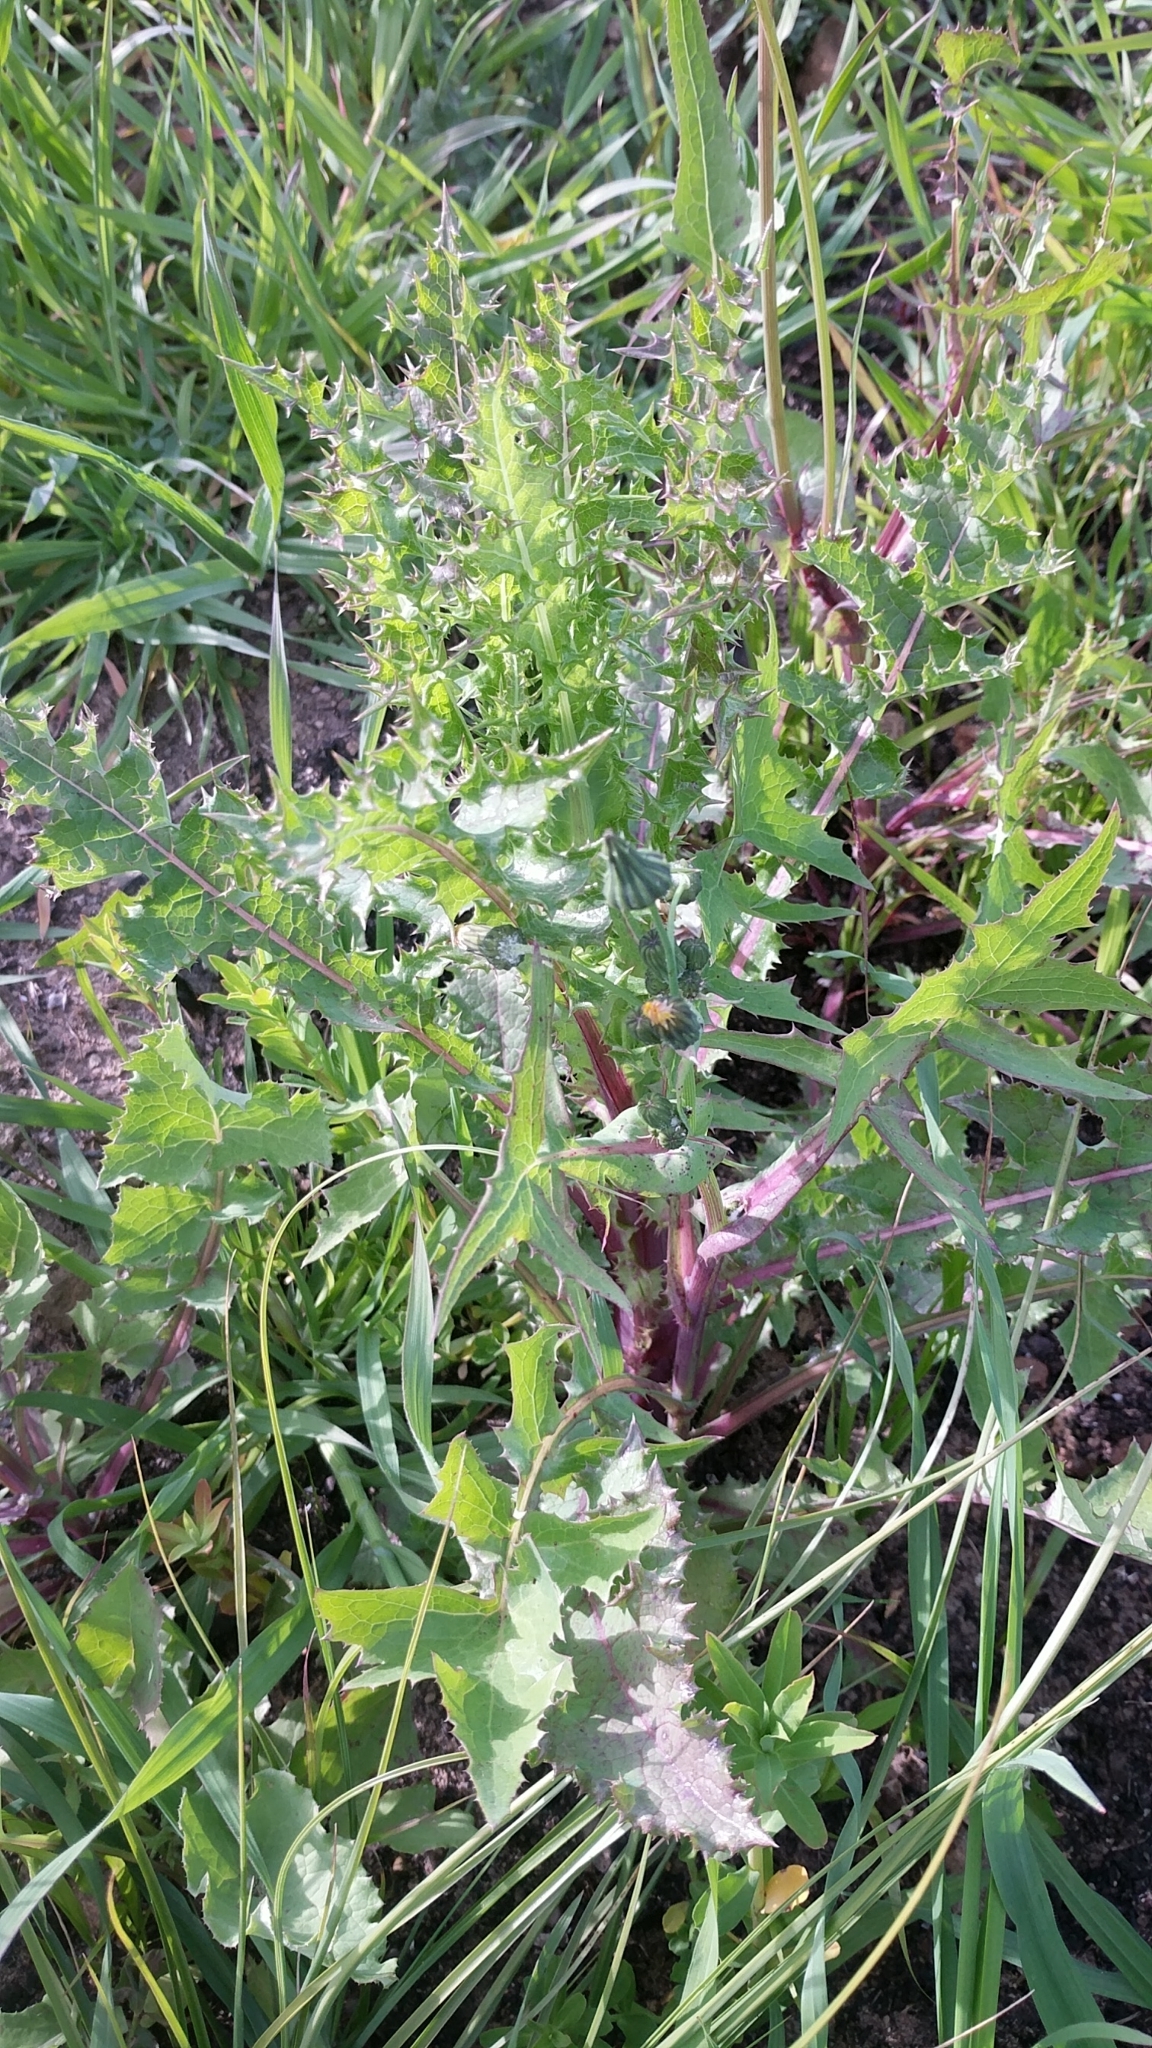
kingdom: Plantae
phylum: Tracheophyta
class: Magnoliopsida
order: Asterales
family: Asteraceae
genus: Sonchus
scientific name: Sonchus oleraceus
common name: Common sowthistle
